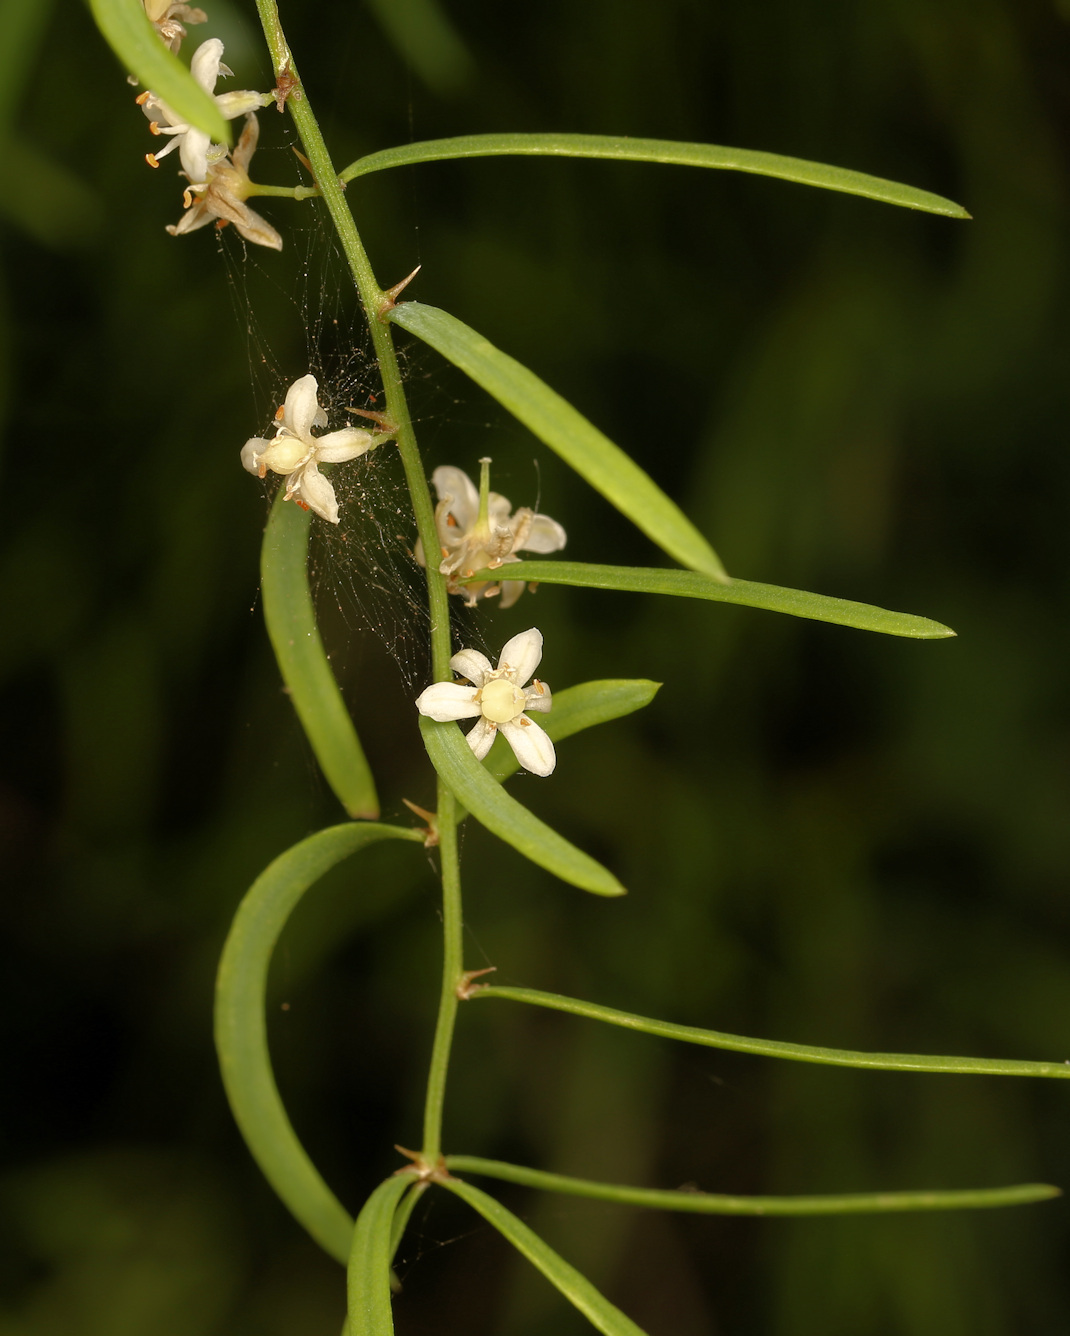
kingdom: Plantae
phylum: Tracheophyta
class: Liliopsida
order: Asparagales
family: Asparagaceae
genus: Asparagus
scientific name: Asparagus natalensis
